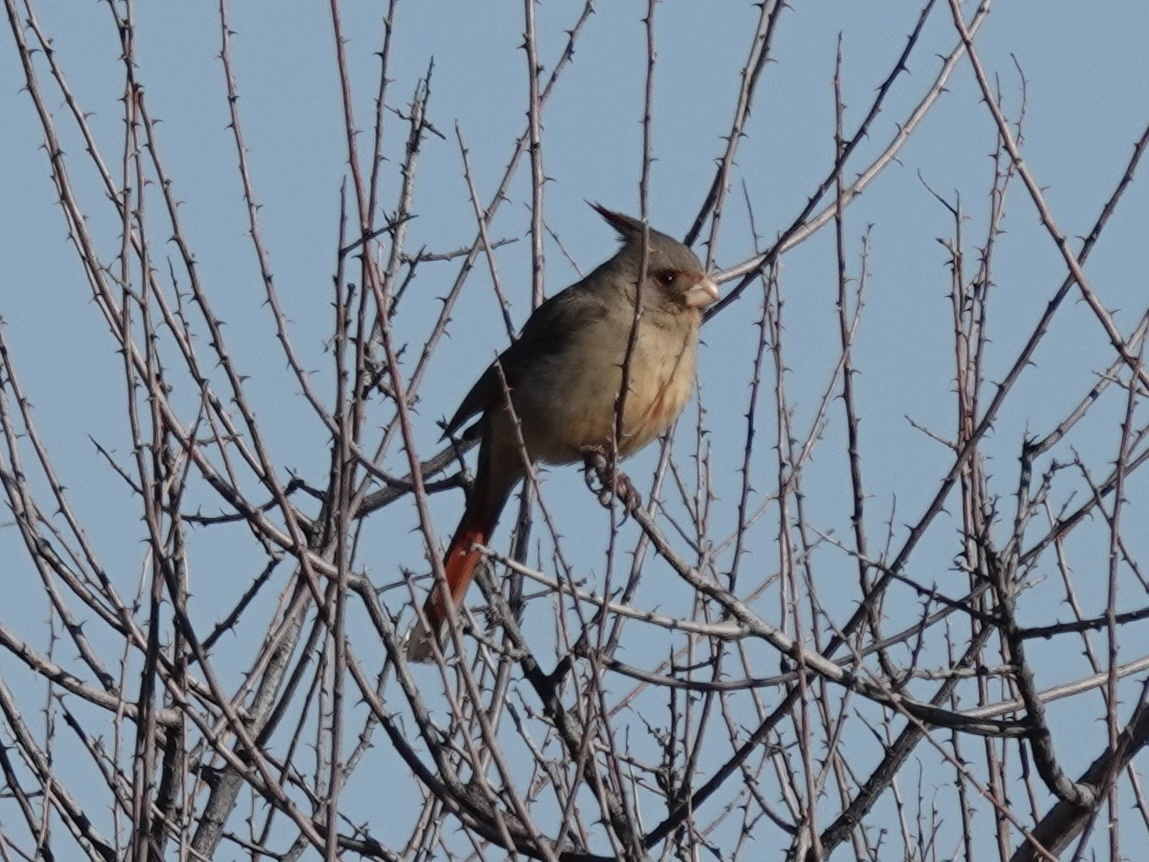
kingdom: Animalia
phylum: Chordata
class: Aves
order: Passeriformes
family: Cardinalidae
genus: Cardinalis
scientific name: Cardinalis sinuatus
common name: Pyrrhuloxia
